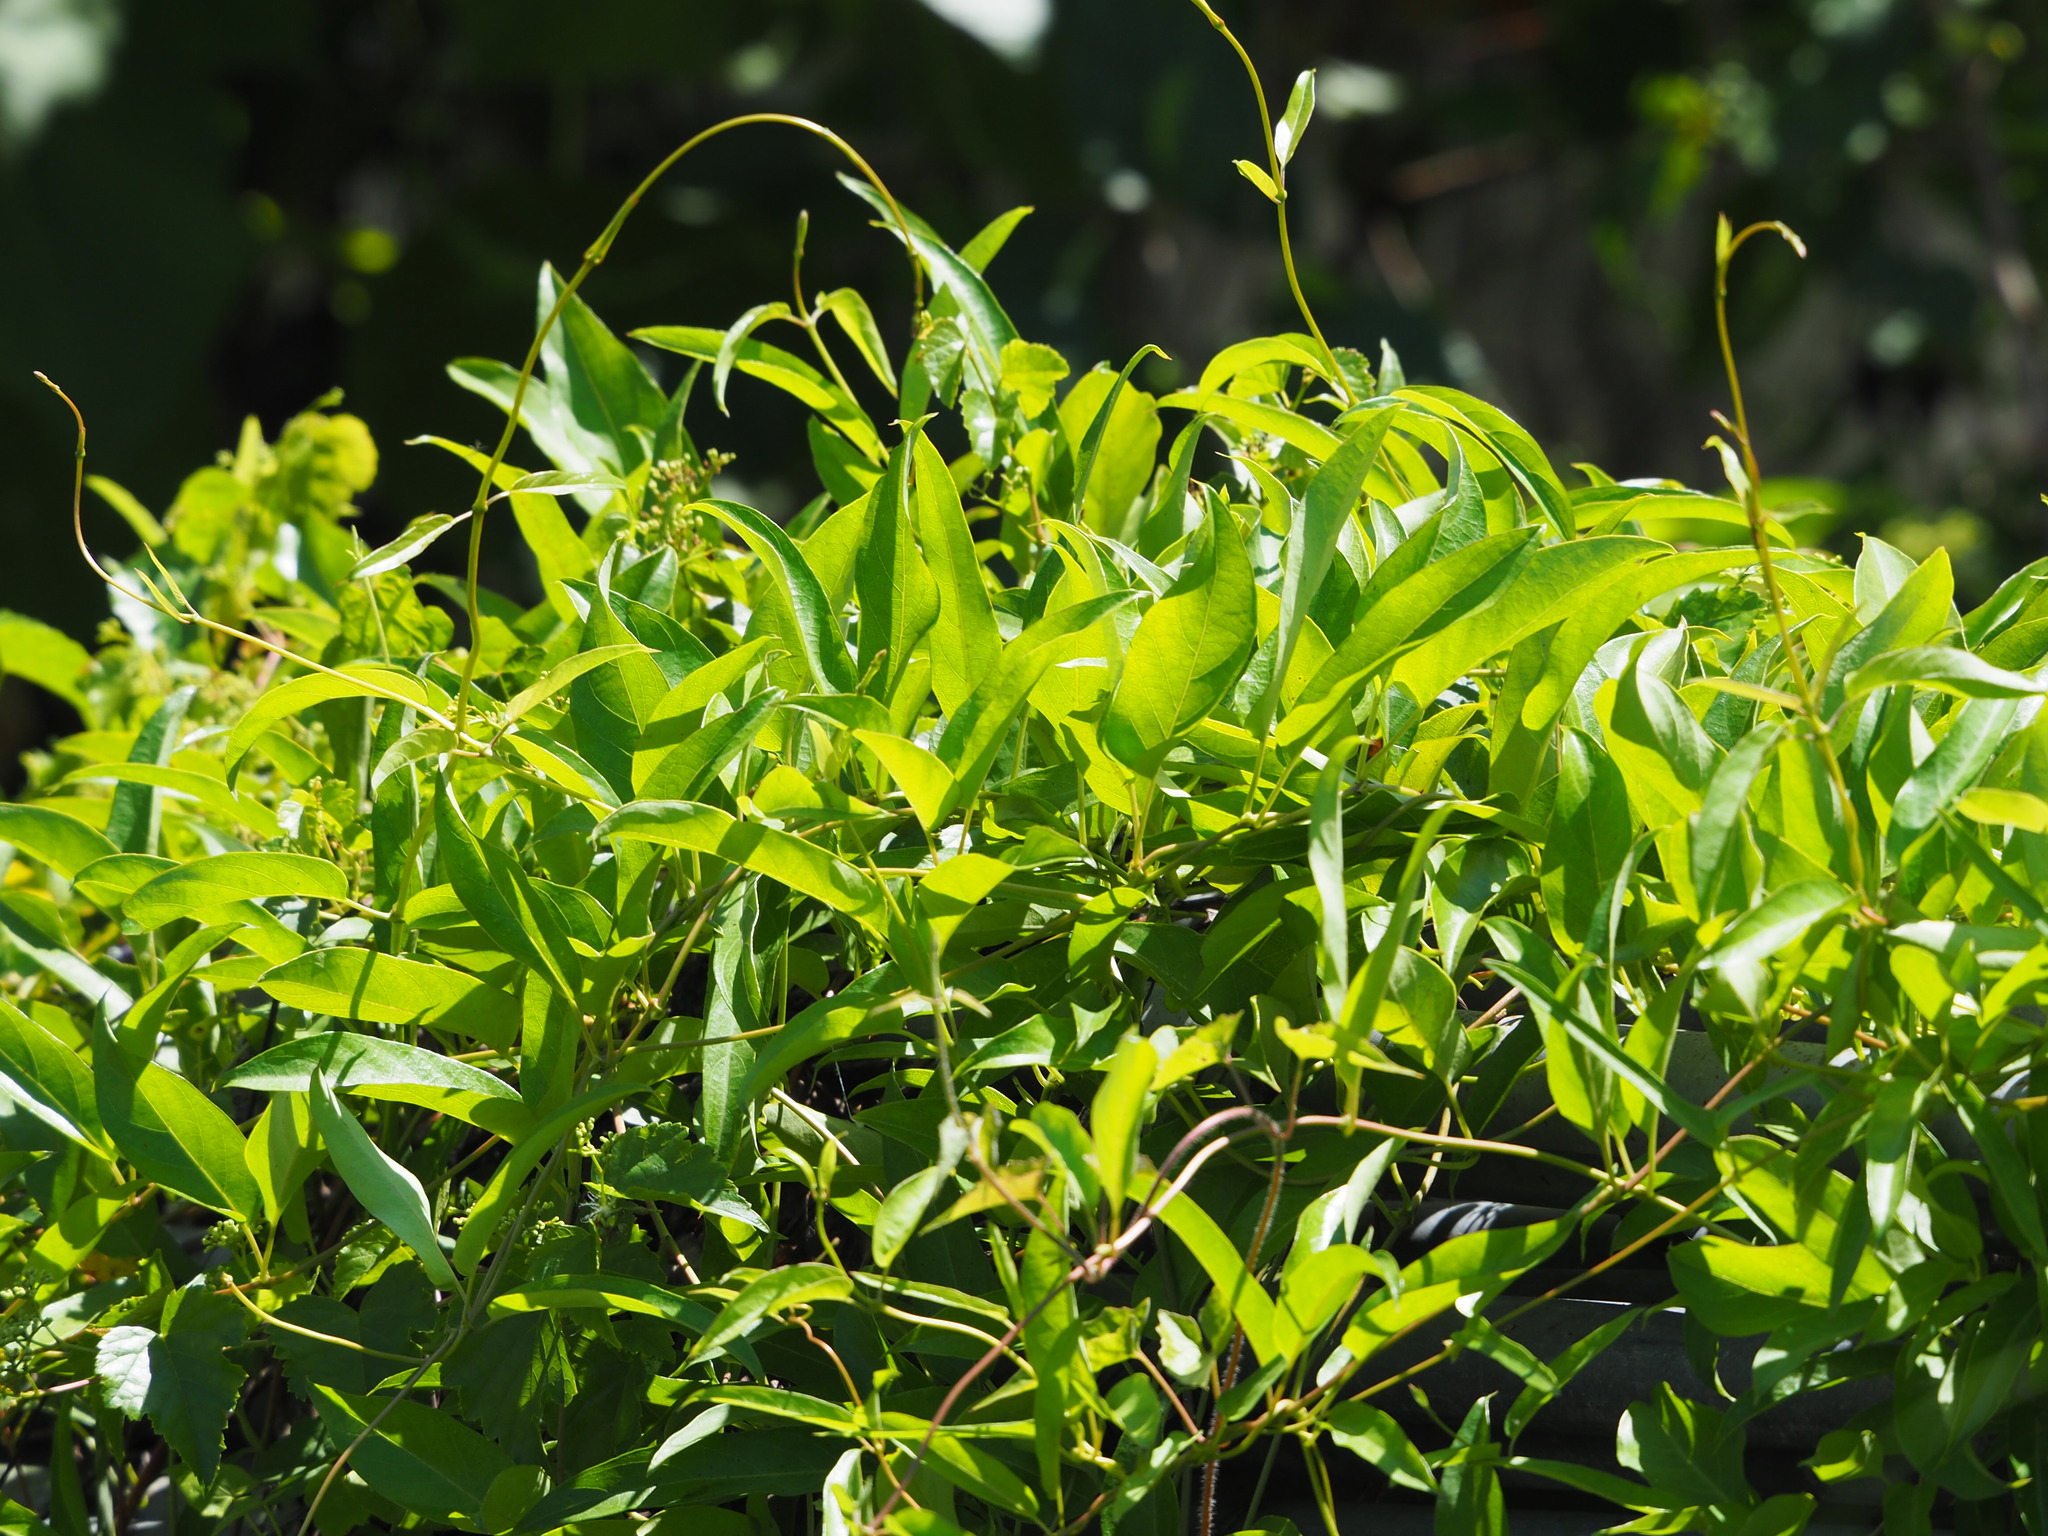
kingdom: Plantae
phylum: Tracheophyta
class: Magnoliopsida
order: Gentianales
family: Rubiaceae
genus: Paederia
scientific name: Paederia foetida
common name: Stinkvine
